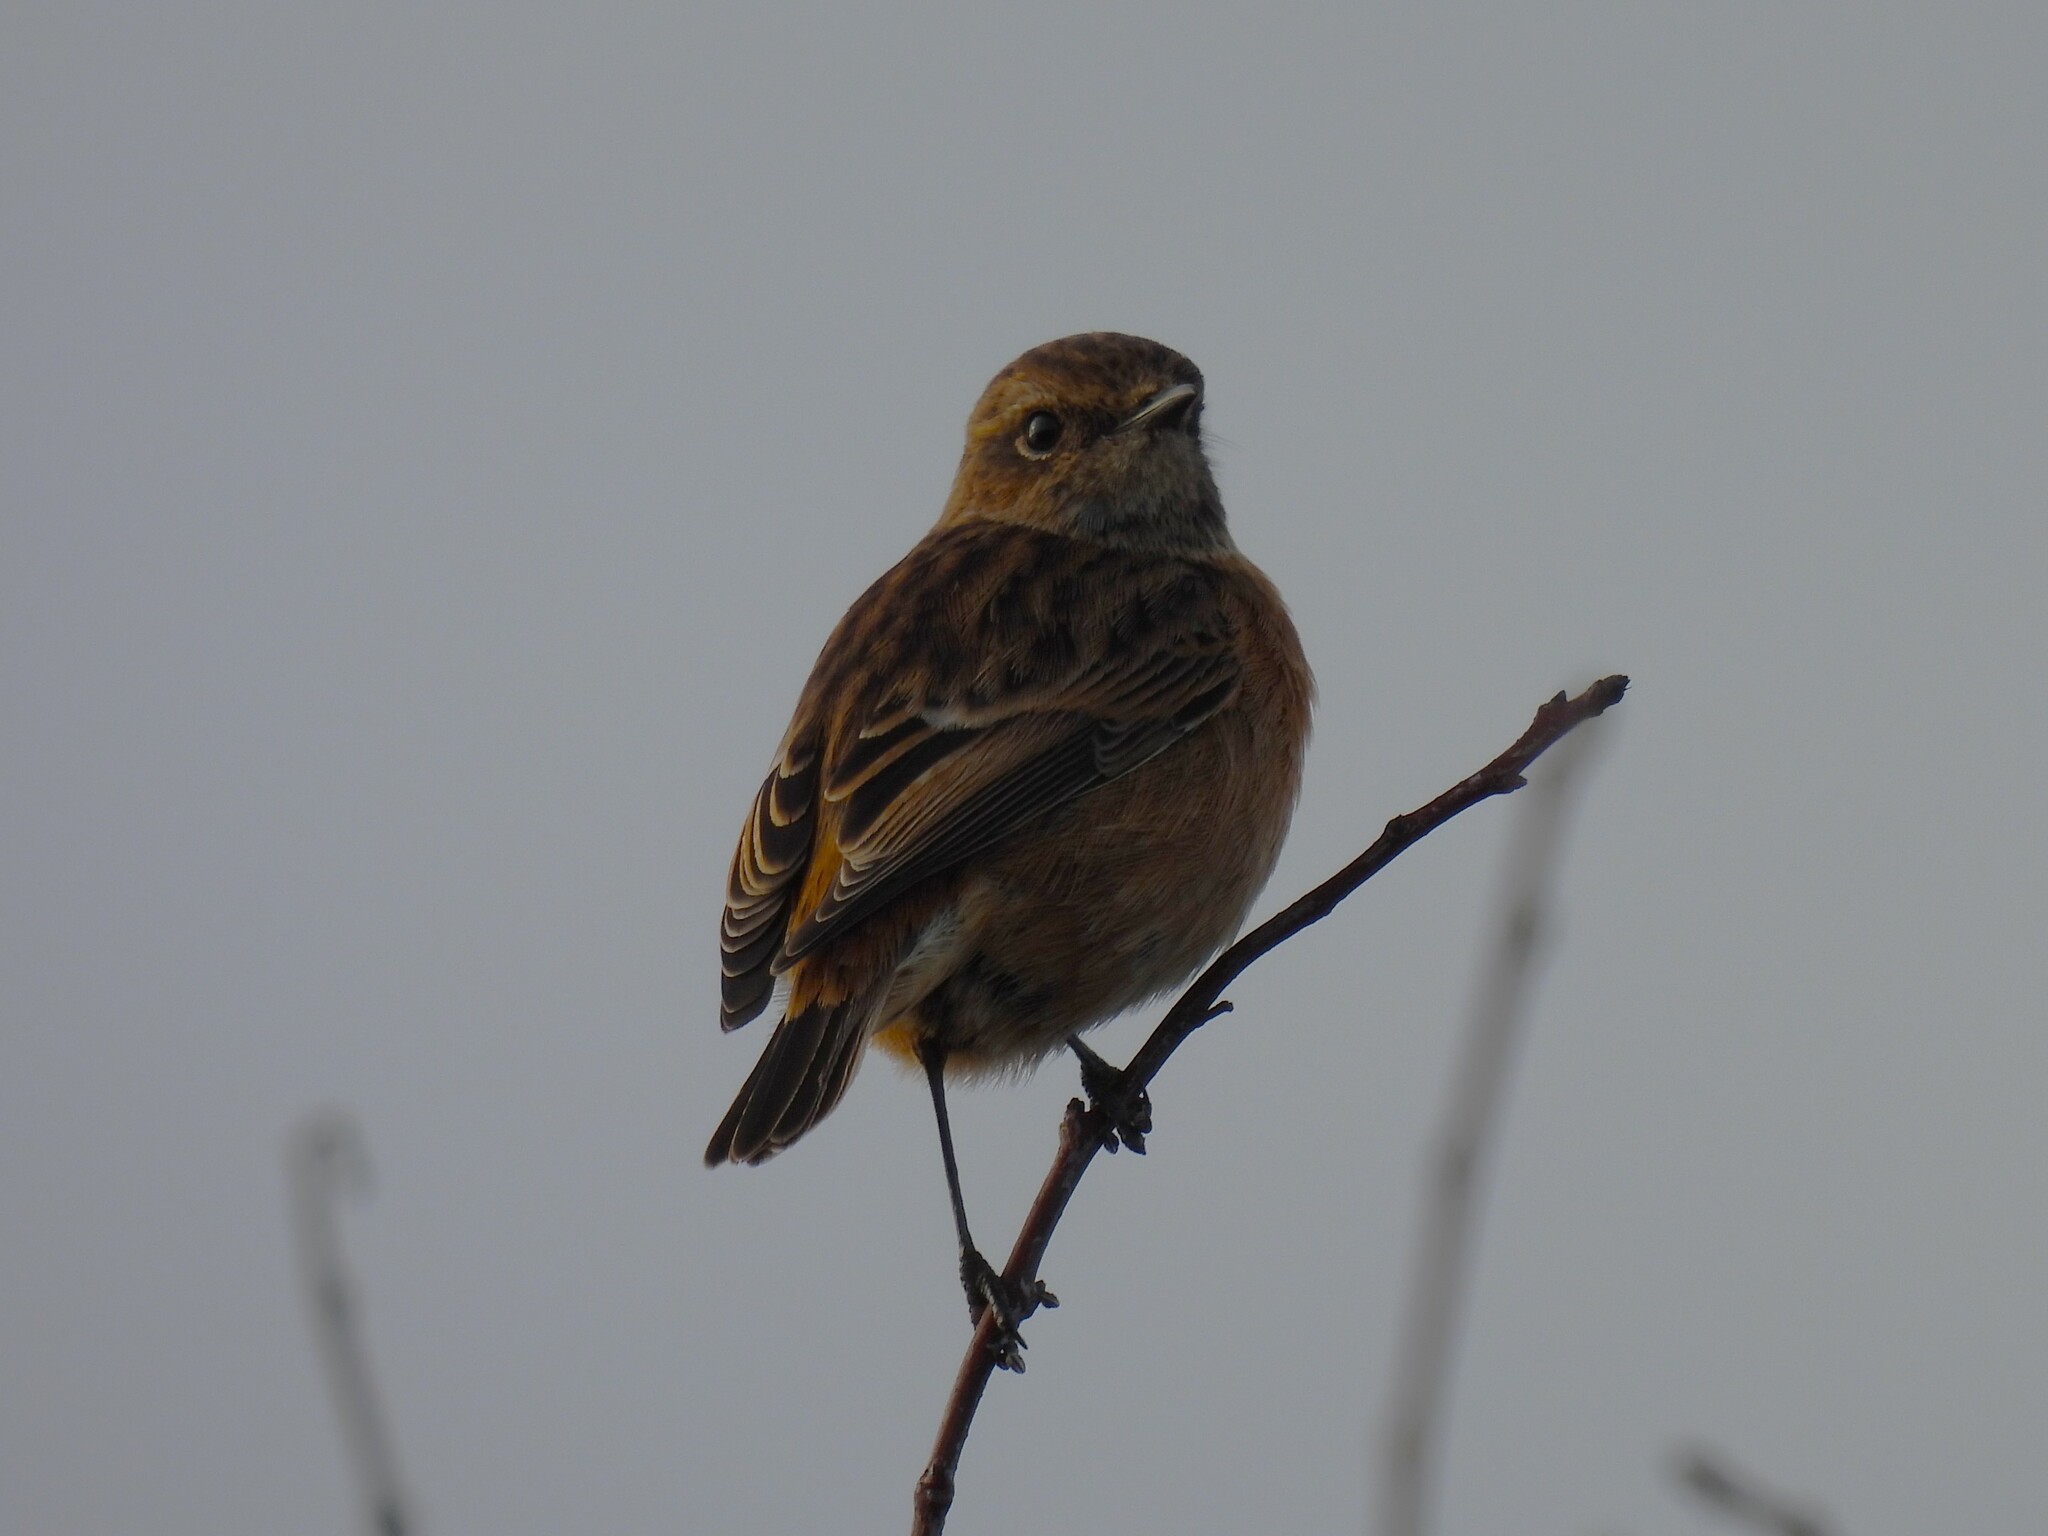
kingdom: Animalia
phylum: Chordata
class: Aves
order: Passeriformes
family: Muscicapidae
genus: Saxicola
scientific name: Saxicola rubicola
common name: European stonechat
